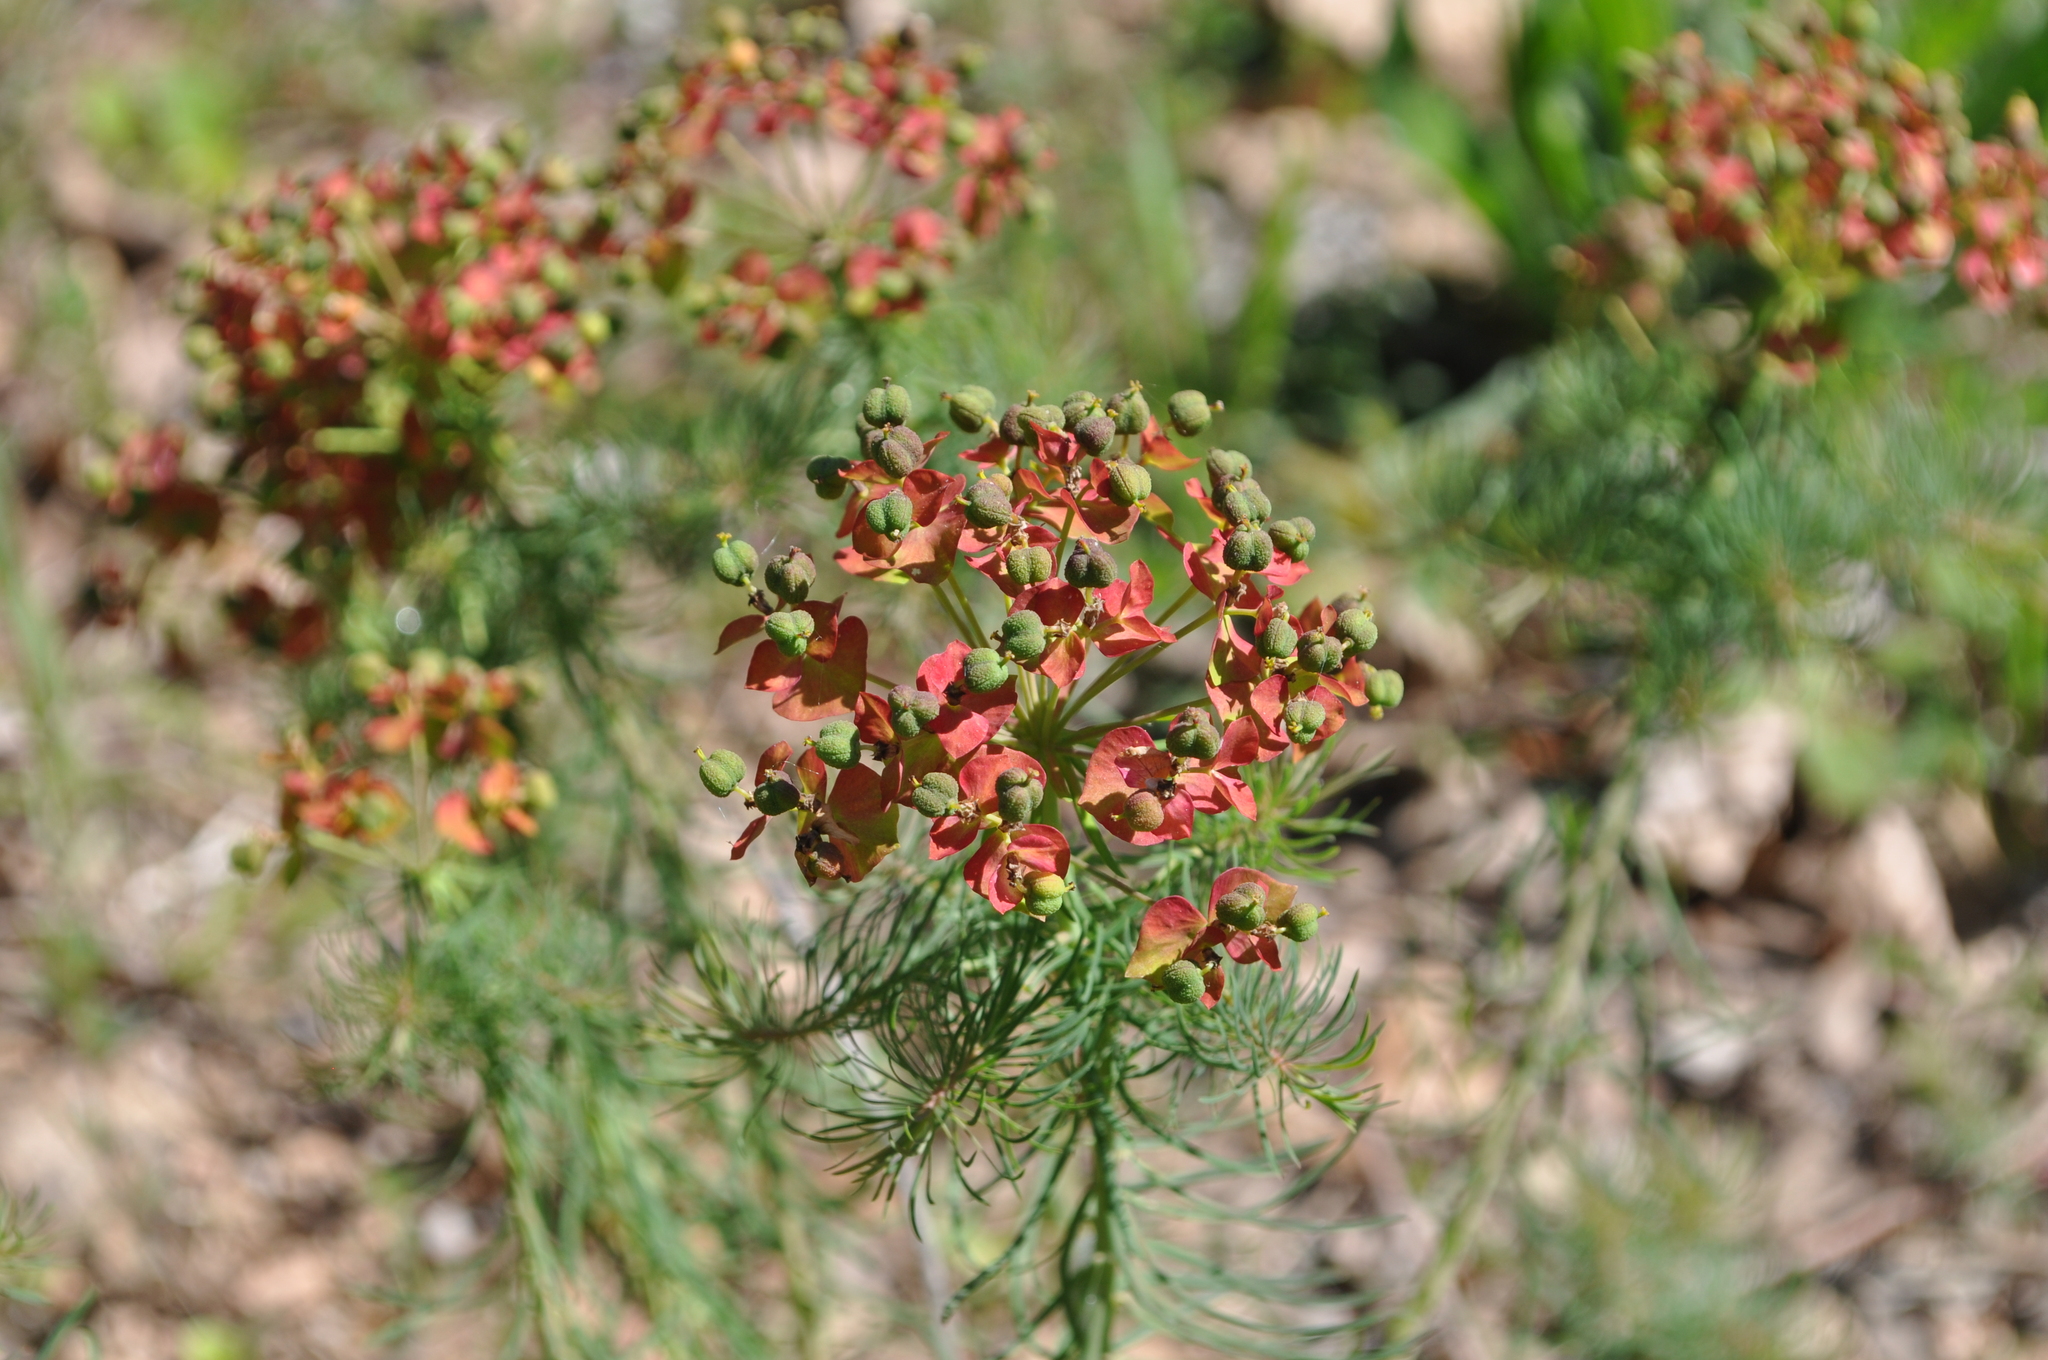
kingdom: Plantae
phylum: Tracheophyta
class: Magnoliopsida
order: Malpighiales
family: Euphorbiaceae
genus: Euphorbia
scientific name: Euphorbia cyparissias
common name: Cypress spurge
